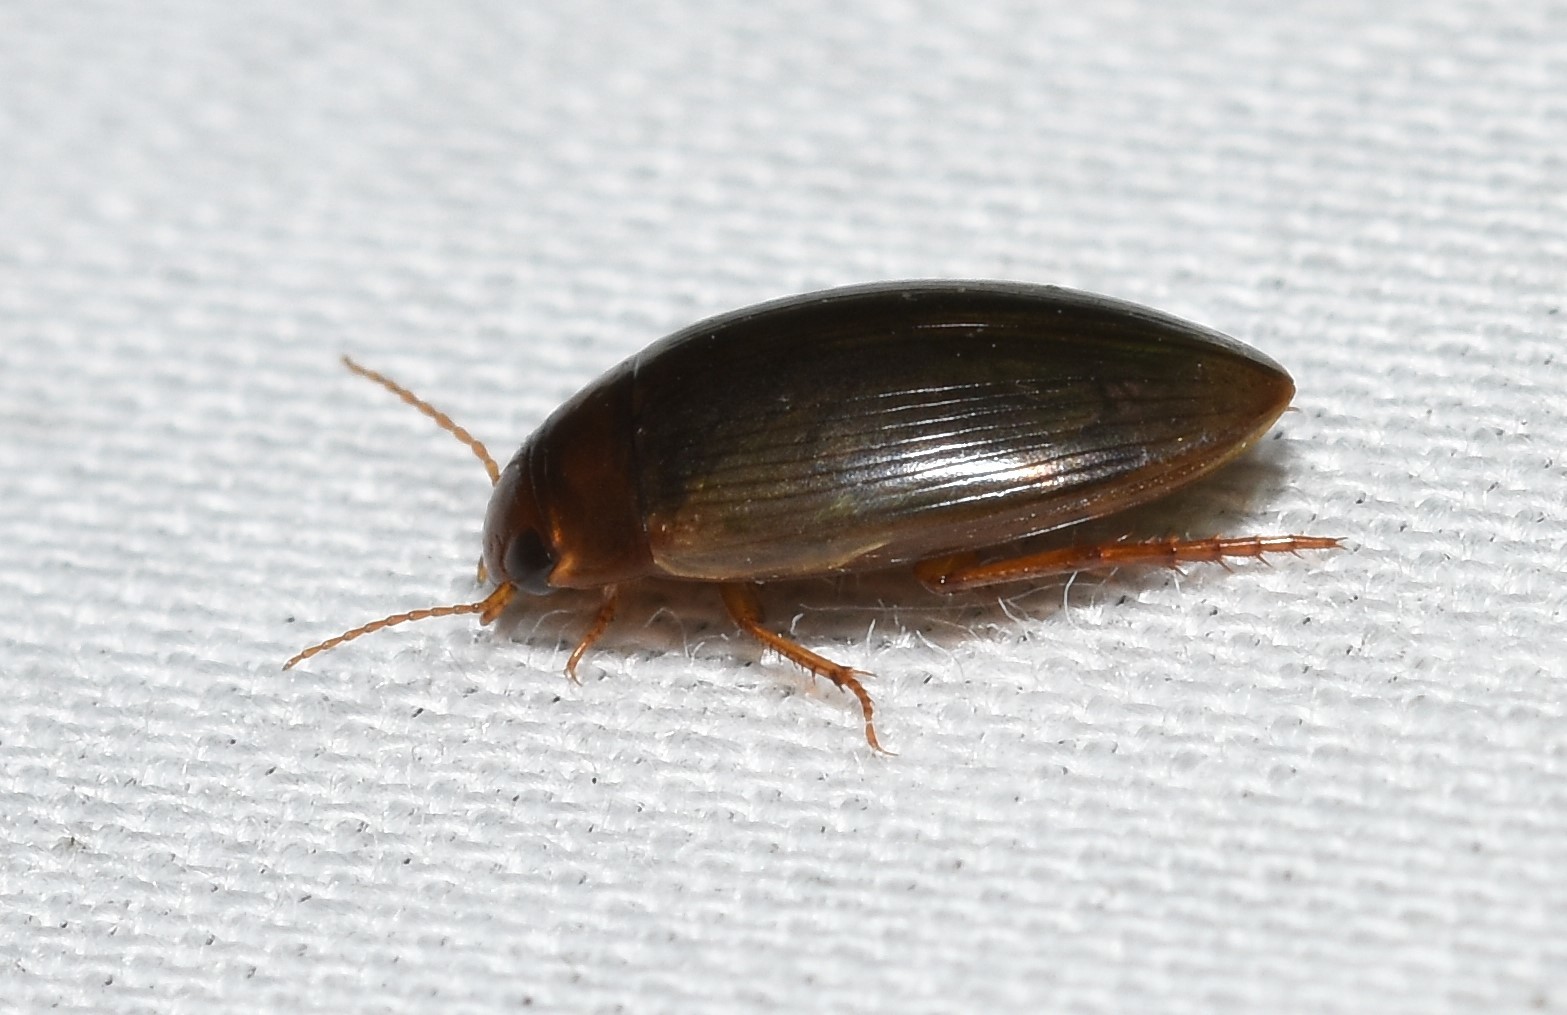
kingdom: Animalia
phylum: Arthropoda
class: Insecta
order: Coleoptera
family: Dytiscidae
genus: Copelatus
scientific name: Copelatus chevrolati
